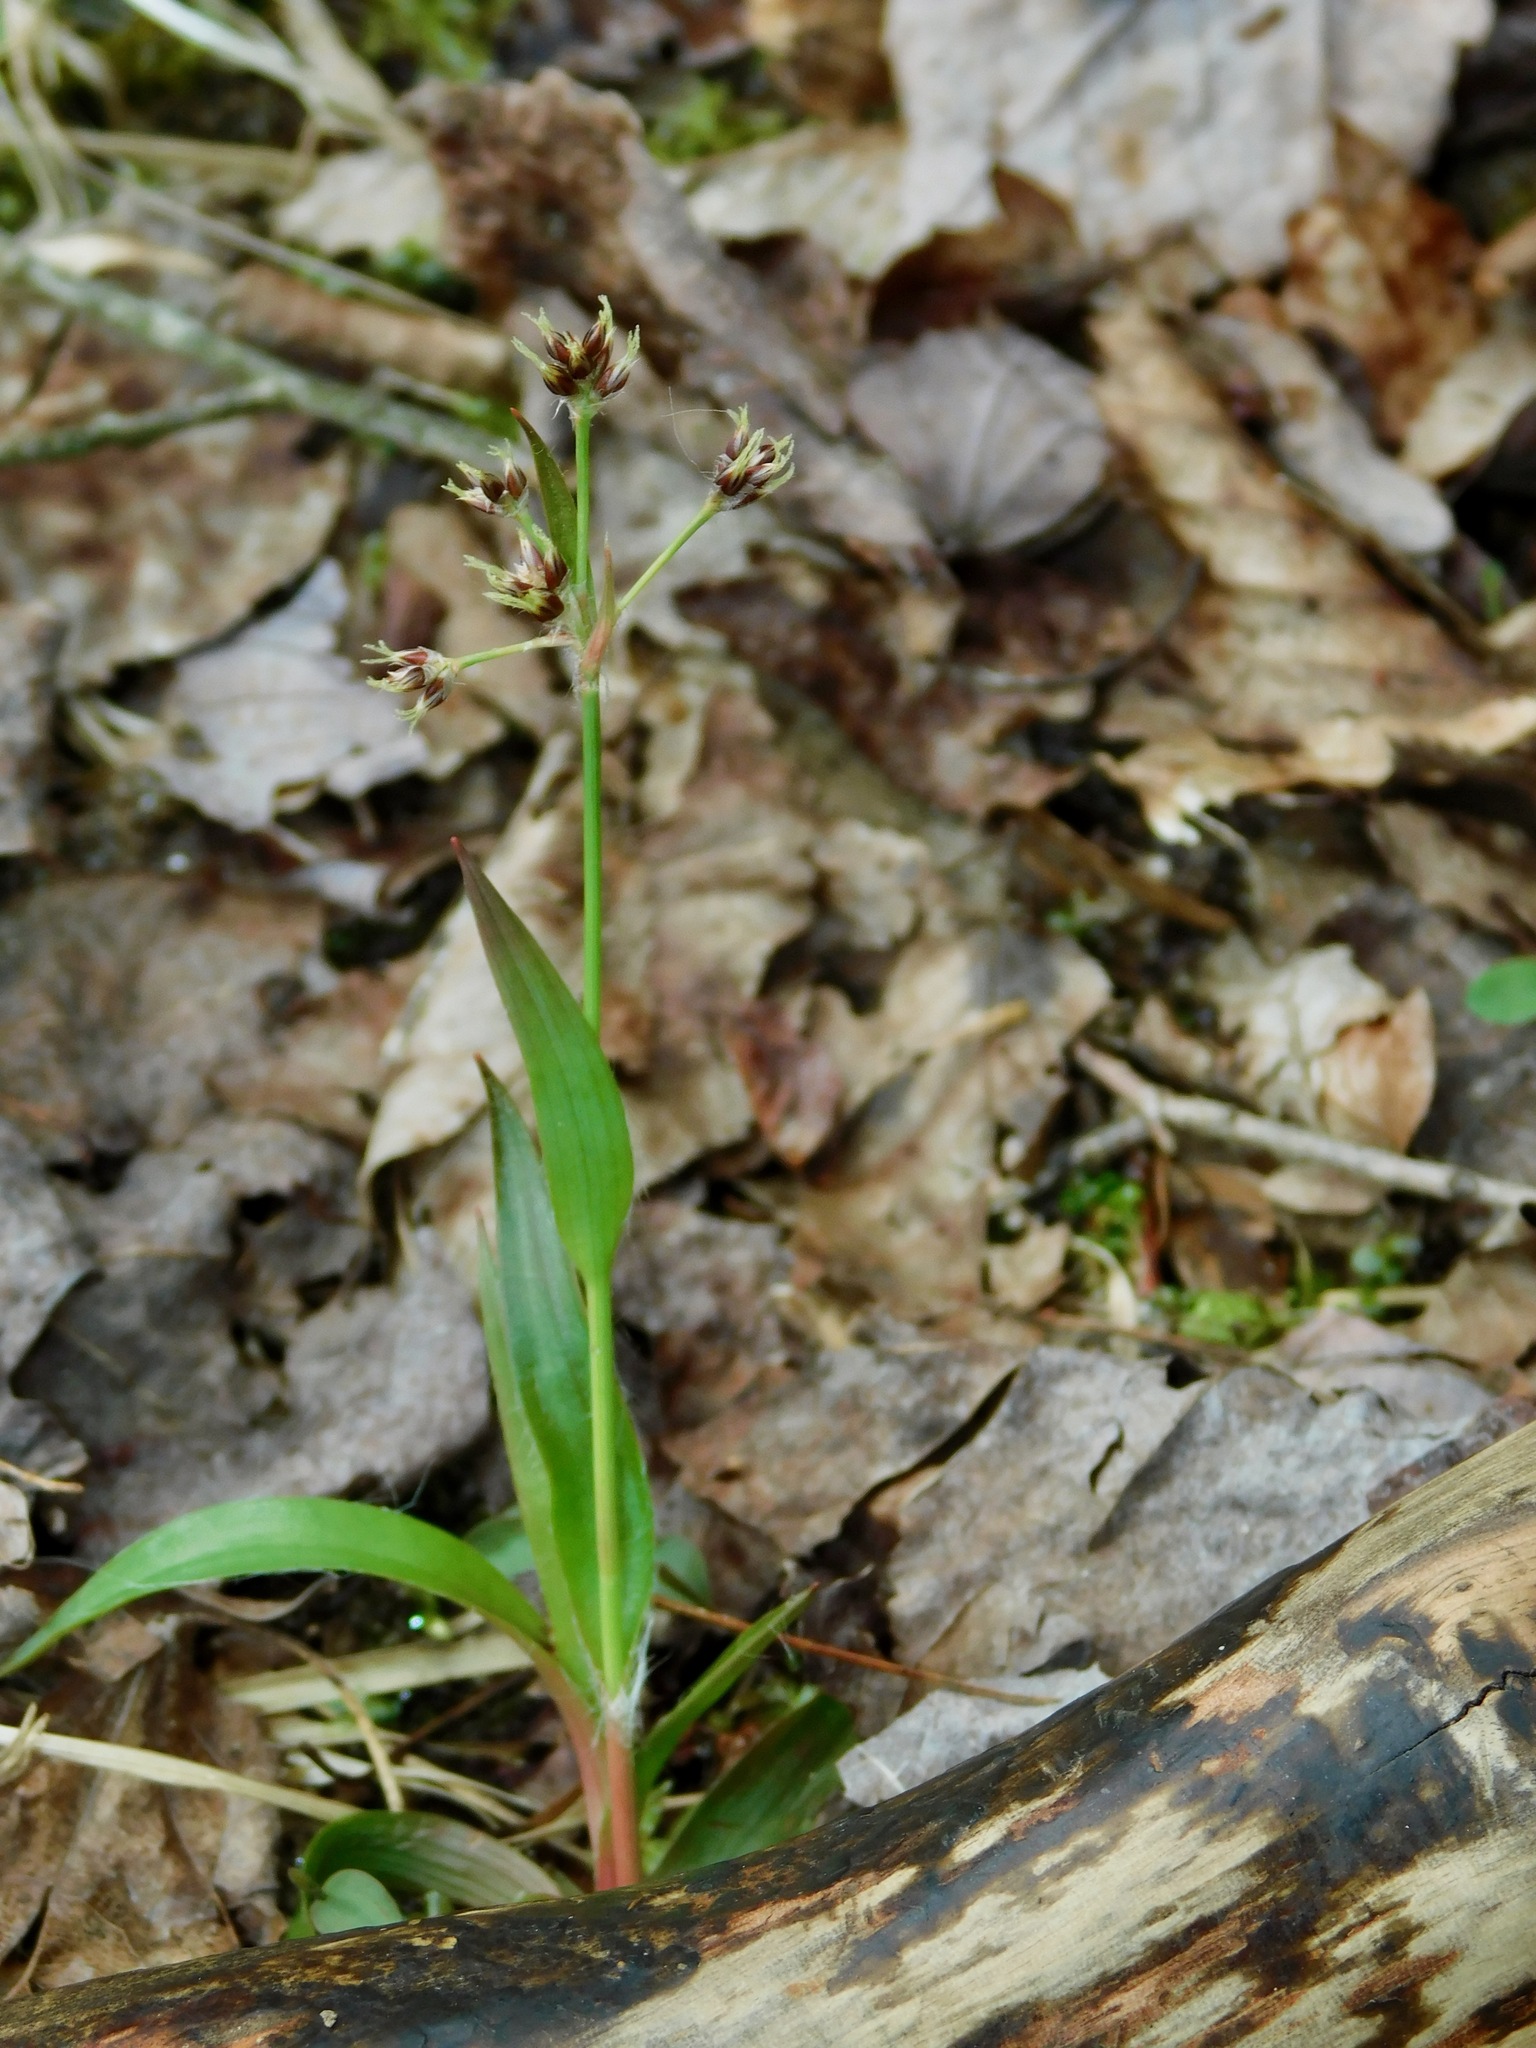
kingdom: Plantae
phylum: Tracheophyta
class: Liliopsida
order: Poales
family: Juncaceae
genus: Luzula
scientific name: Luzula echinata
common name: Hedgehog woodrush
